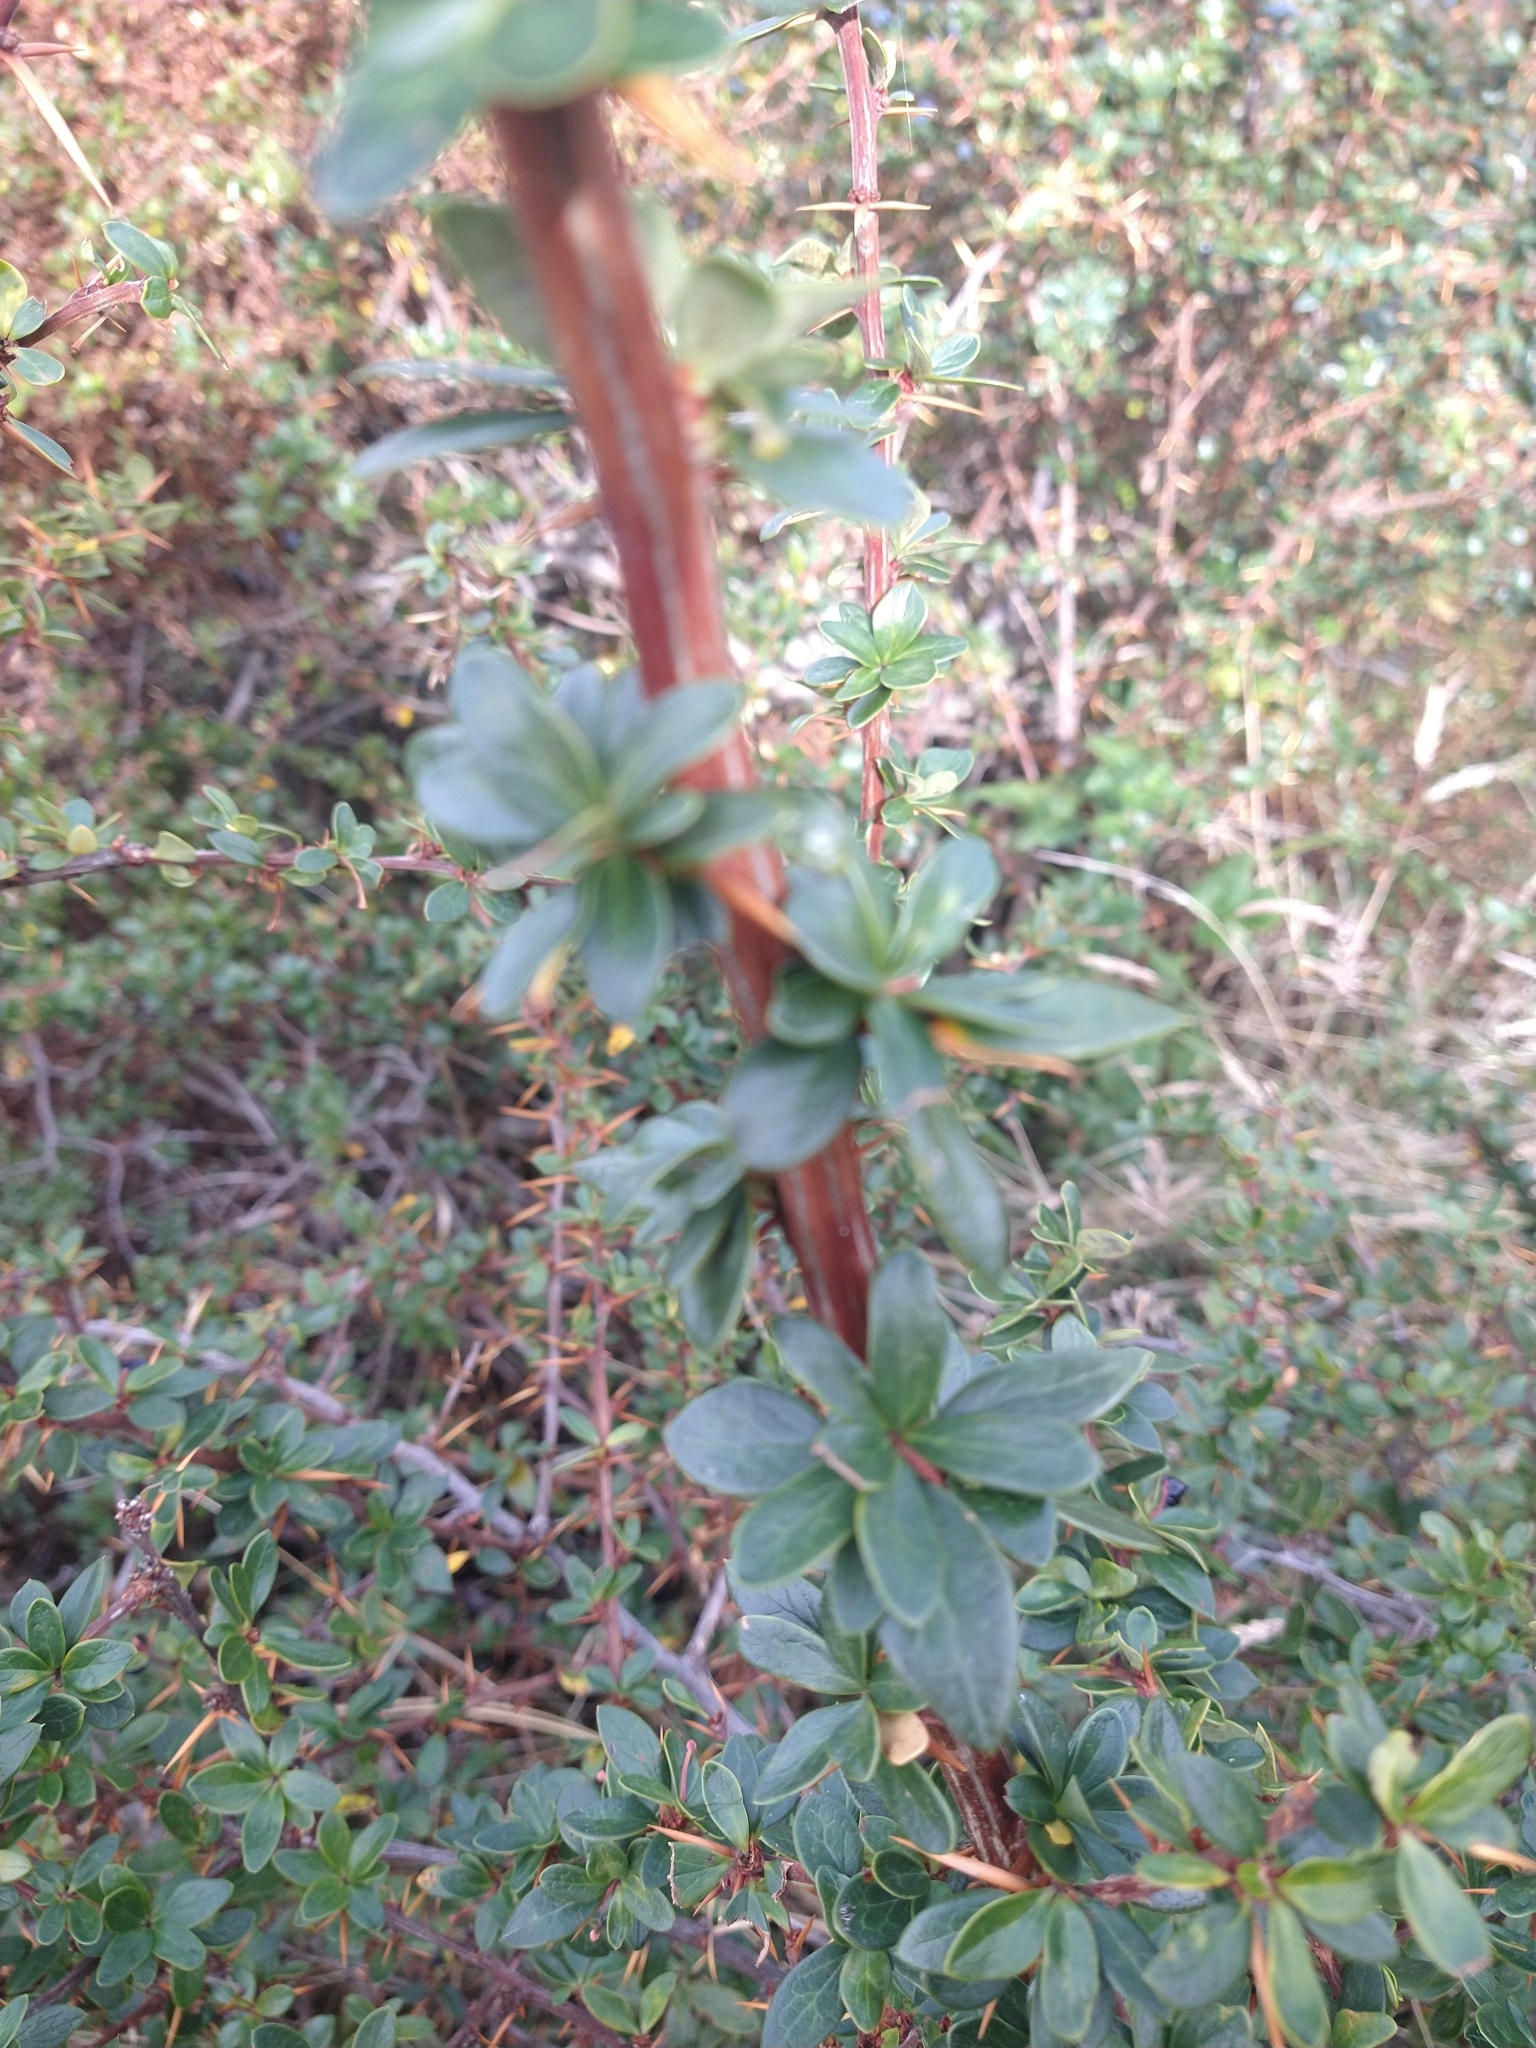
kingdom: Plantae
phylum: Tracheophyta
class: Magnoliopsida
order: Ranunculales
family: Berberidaceae
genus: Berberis
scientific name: Berberis microphylla
